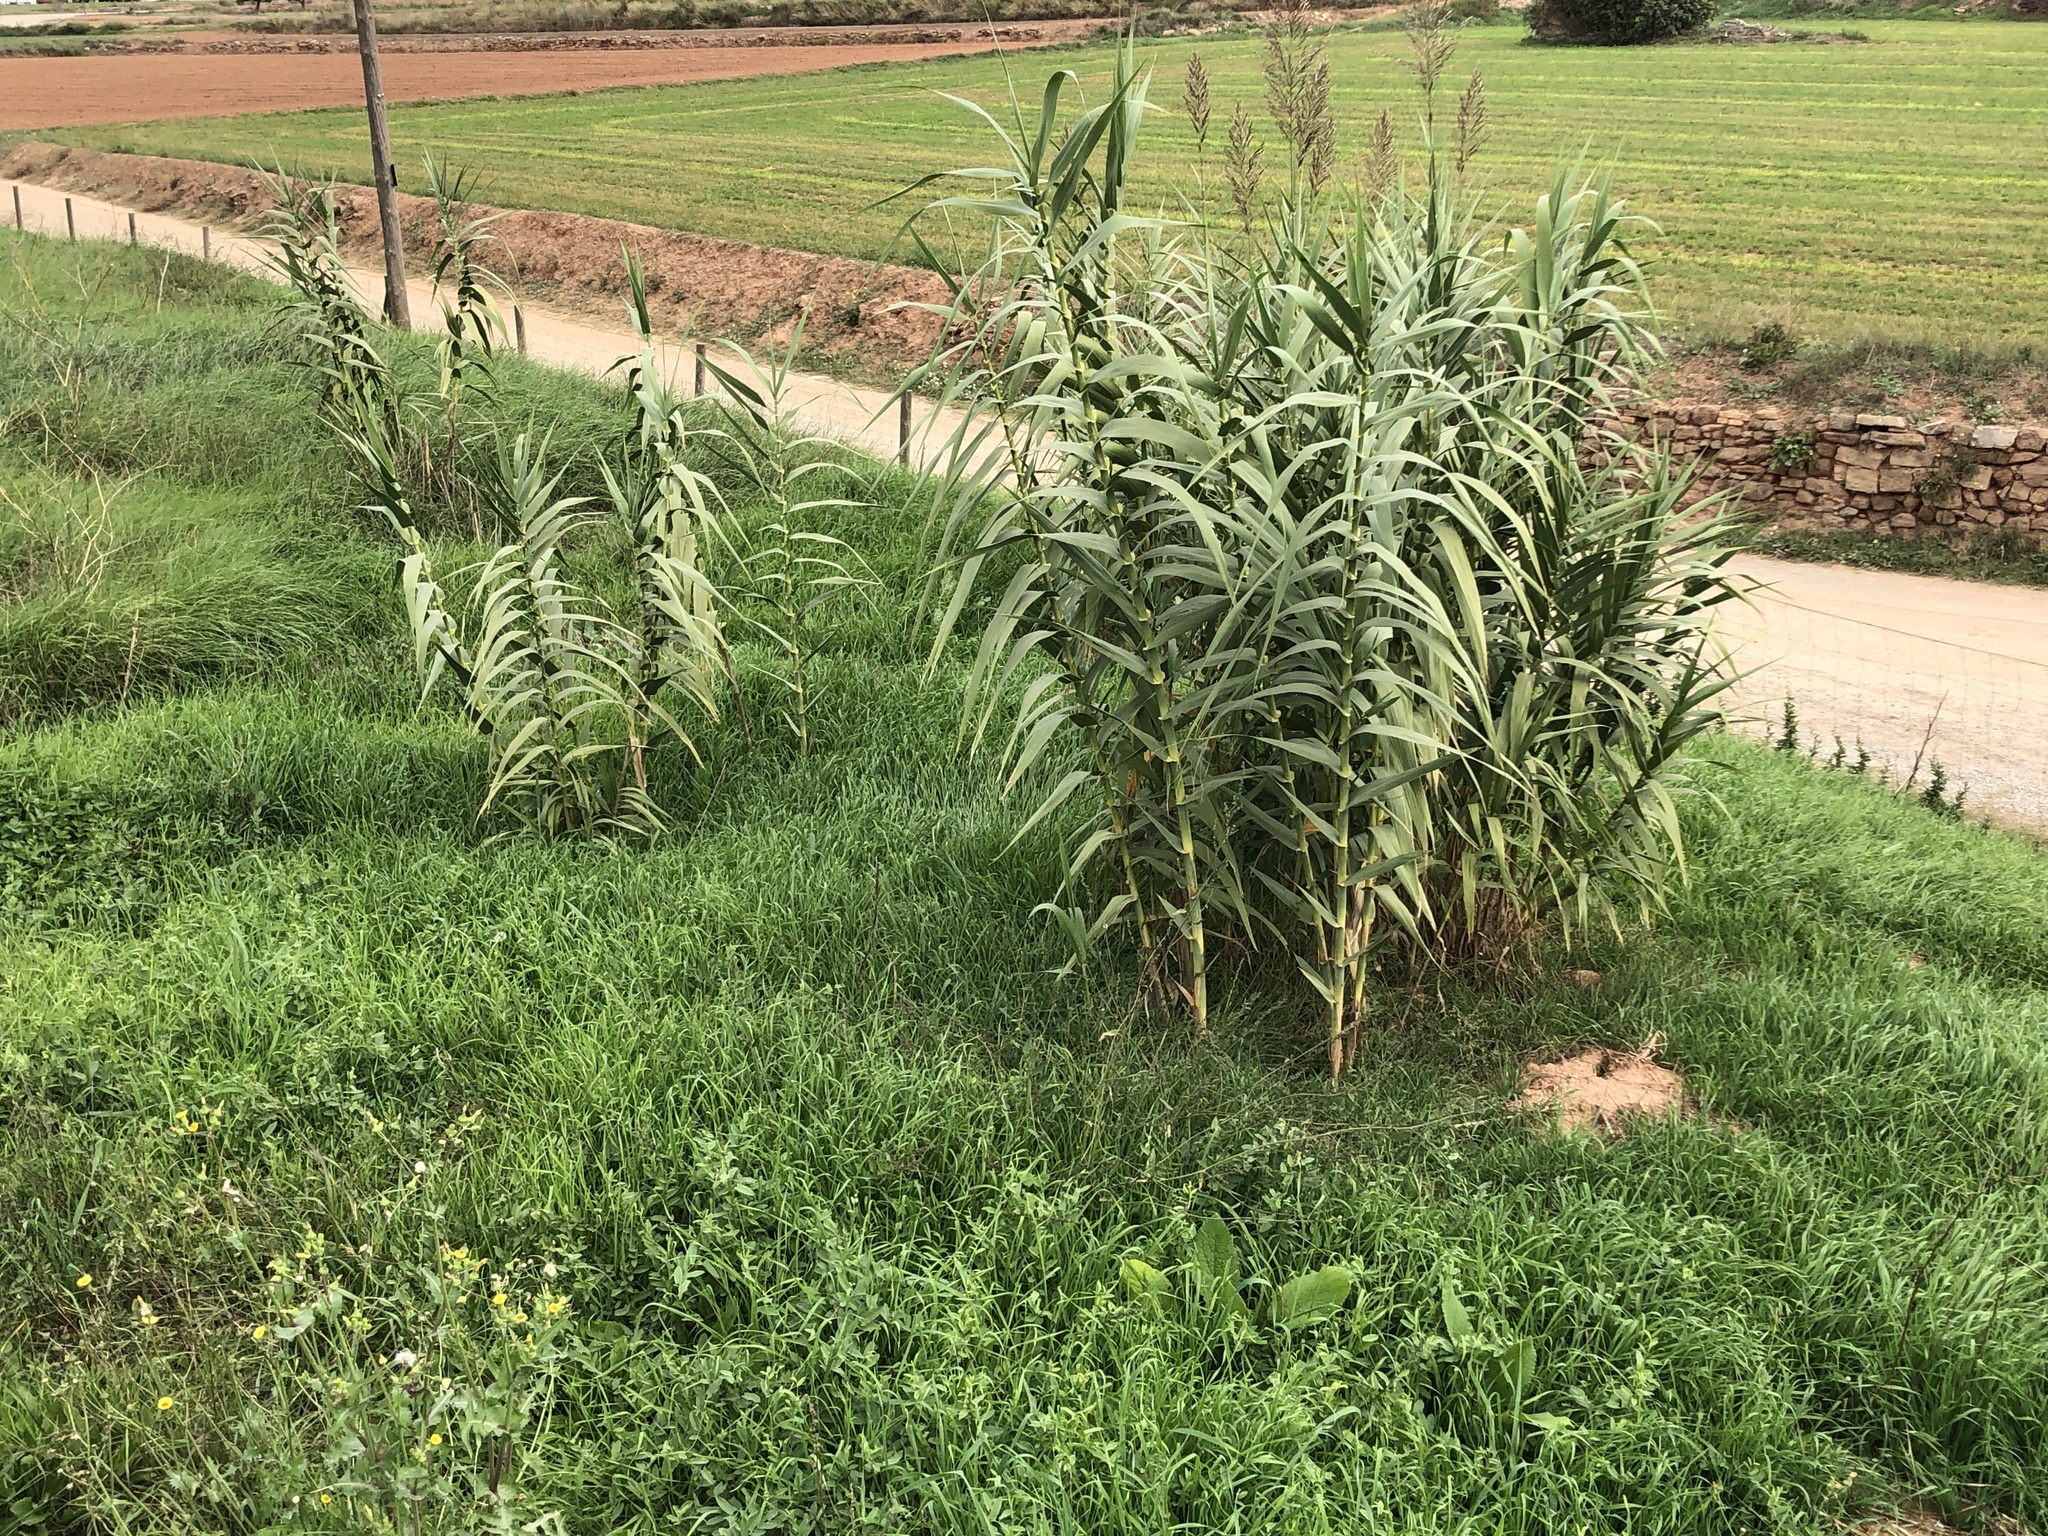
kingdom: Plantae
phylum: Tracheophyta
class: Liliopsida
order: Poales
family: Poaceae
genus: Arundo
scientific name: Arundo donax
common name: Giant reed
